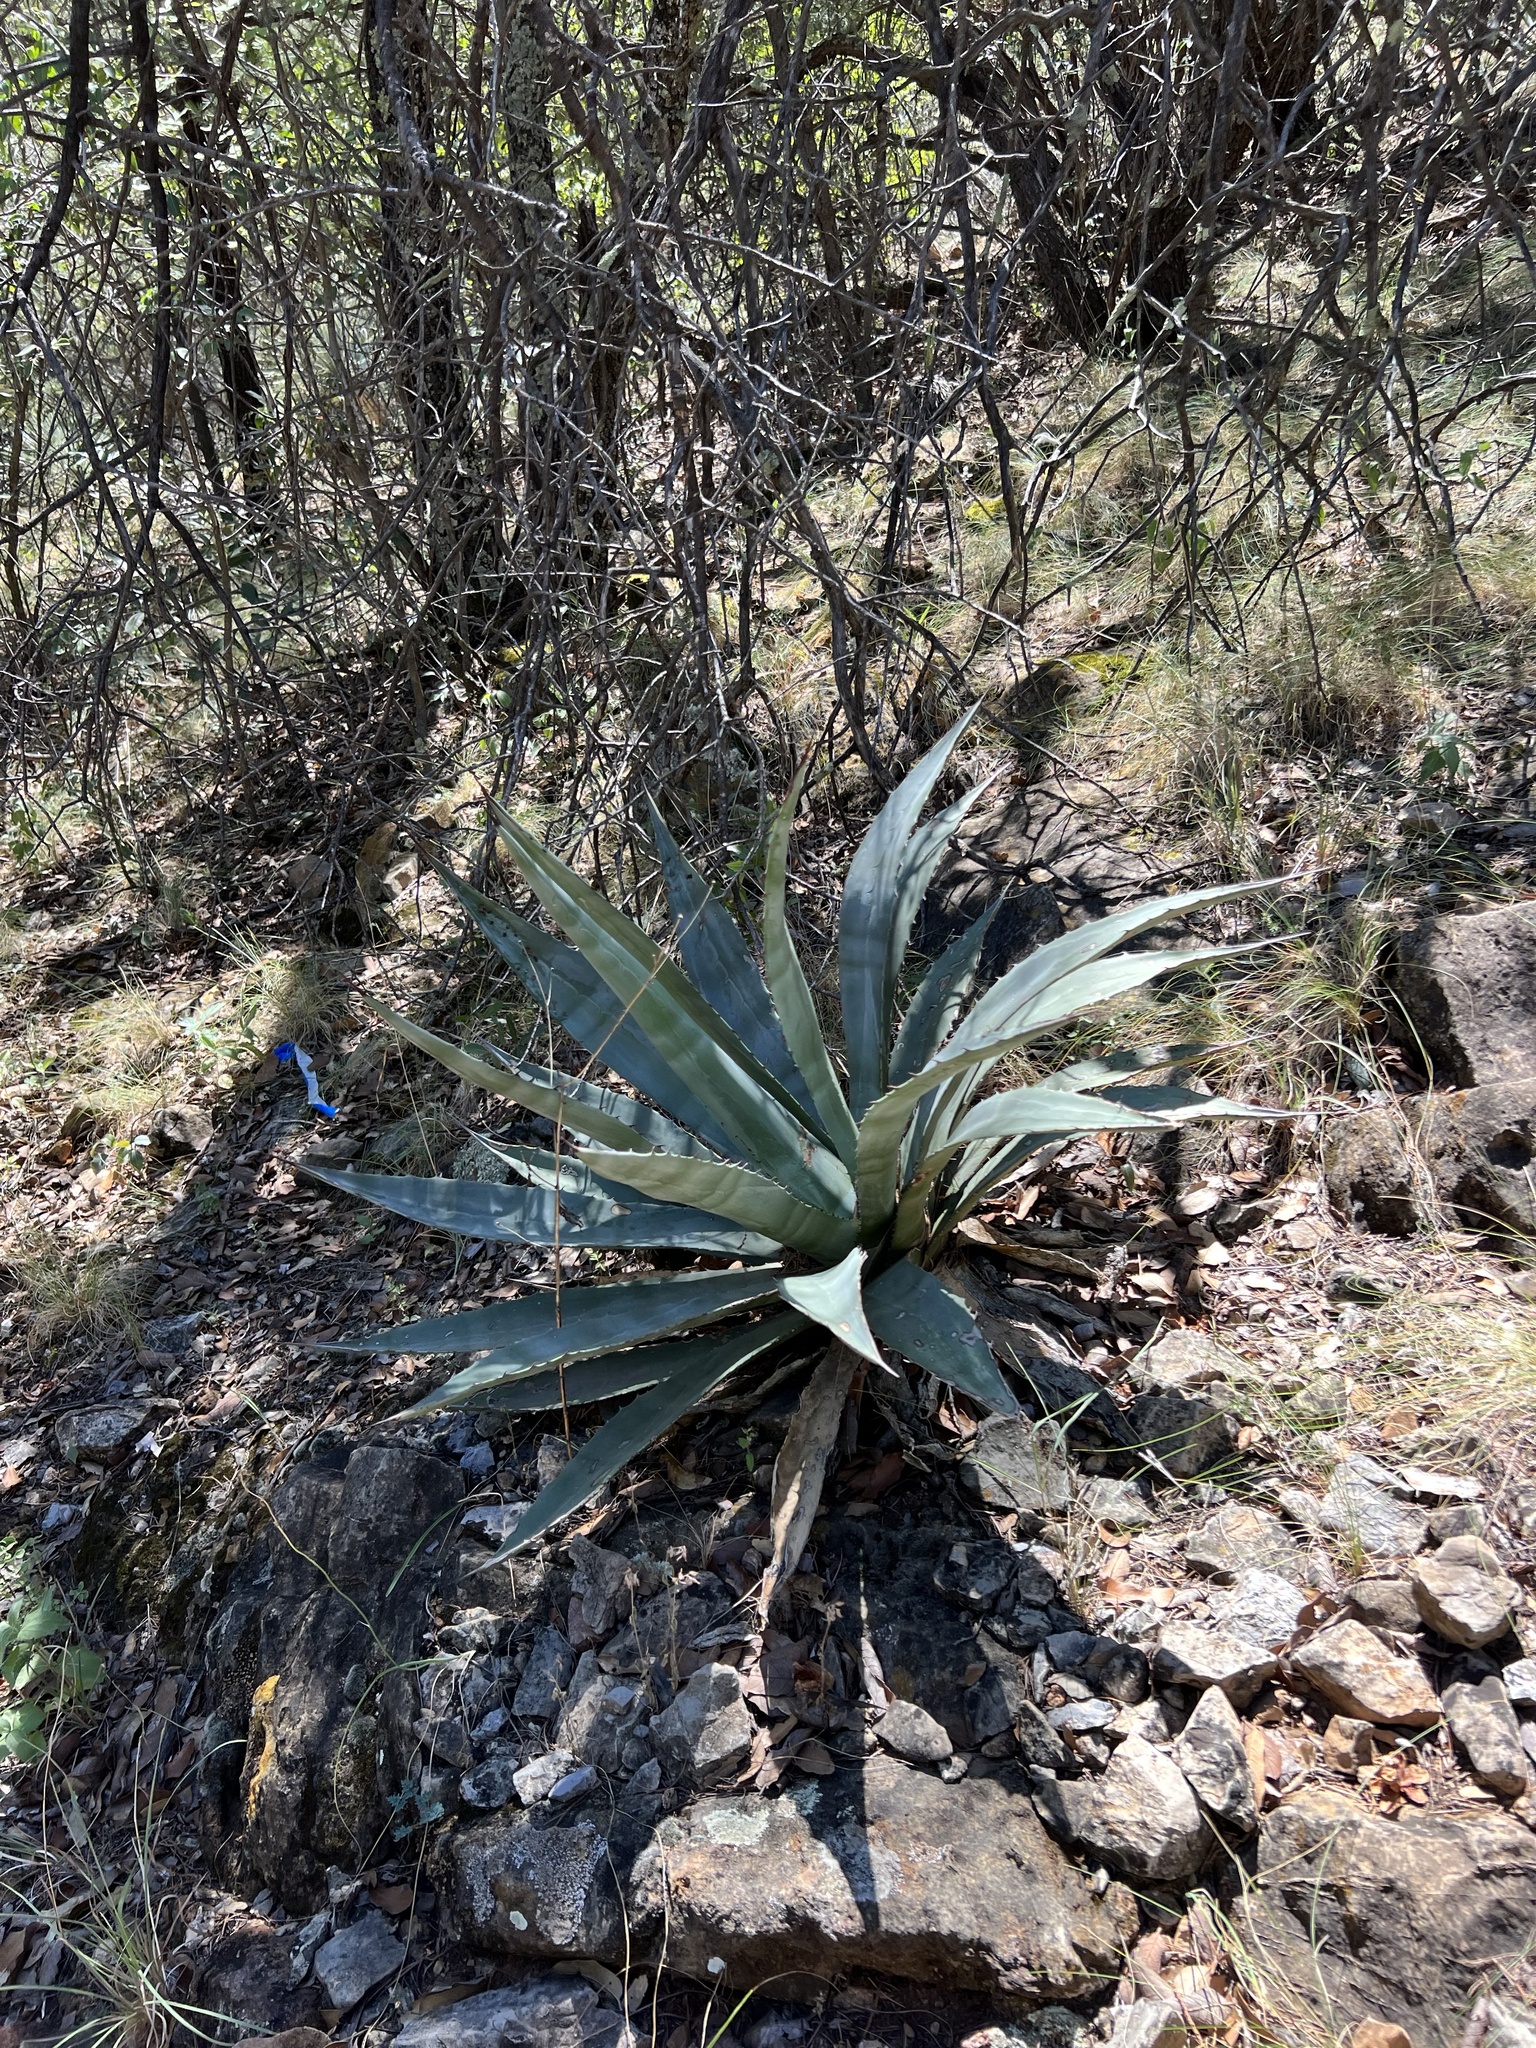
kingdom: Plantae
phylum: Tracheophyta
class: Liliopsida
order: Asparagales
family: Asparagaceae
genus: Agave
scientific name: Agave palmeri
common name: Palmer agave
